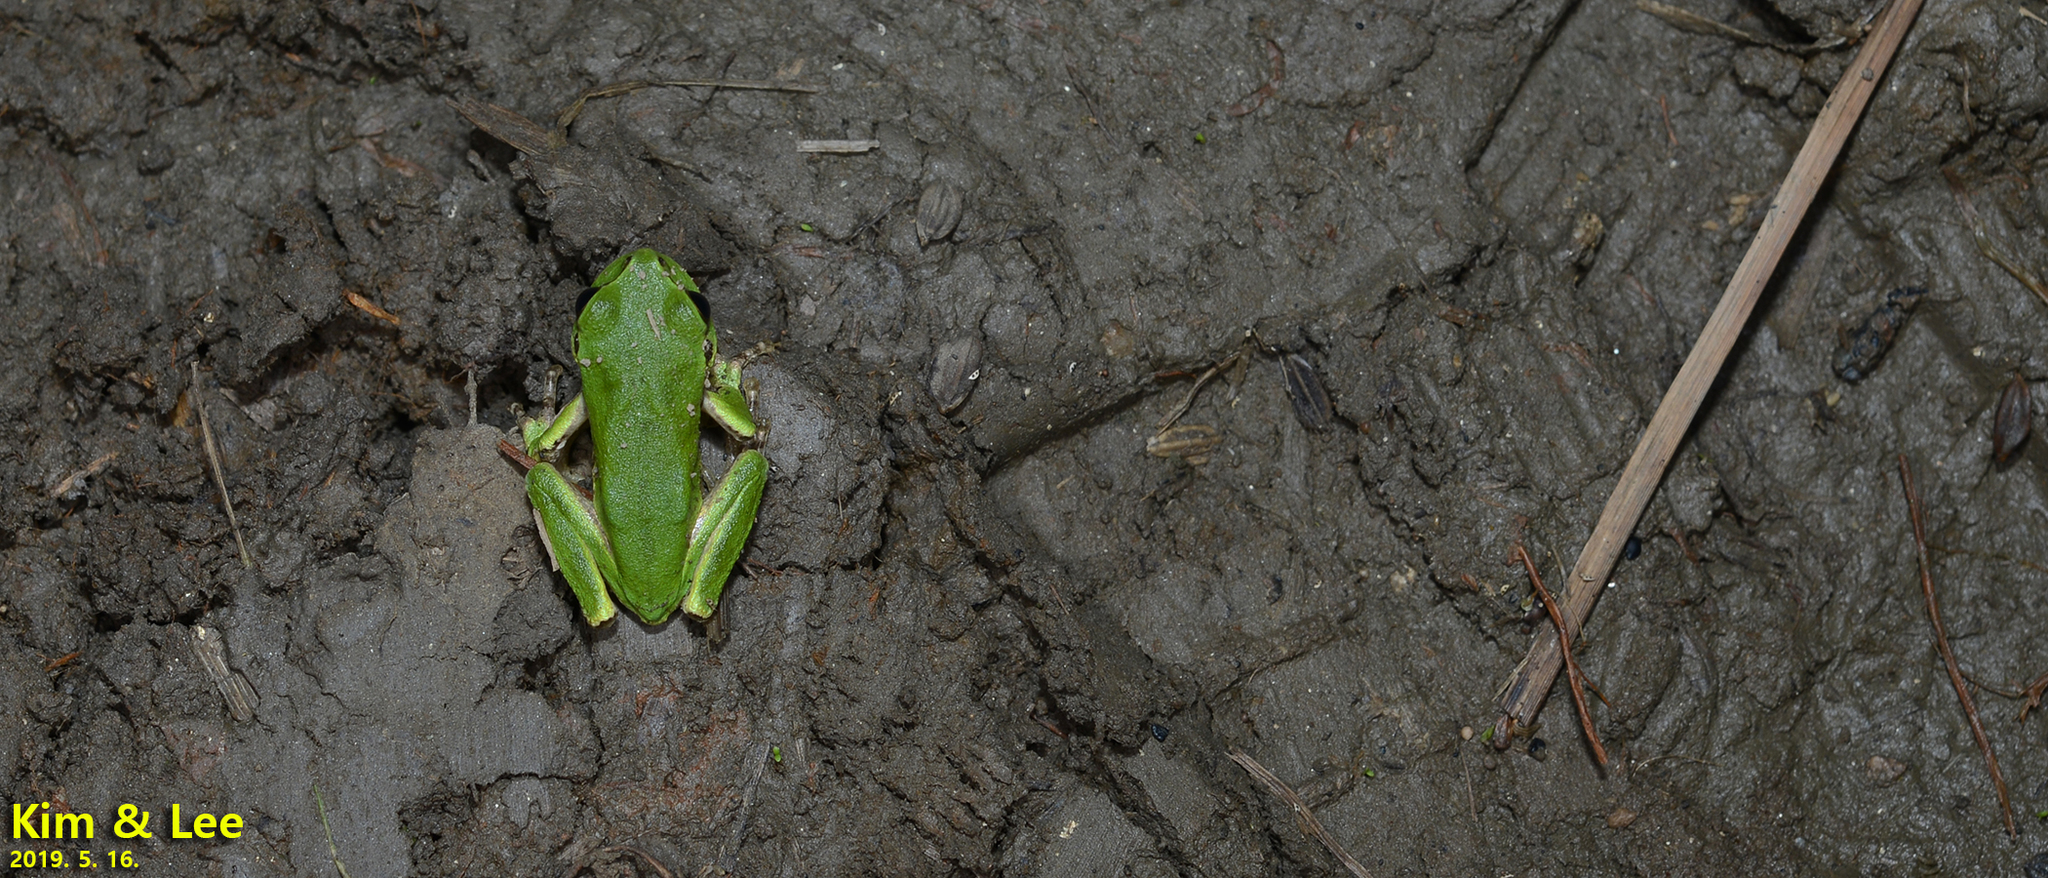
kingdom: Animalia
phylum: Chordata
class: Amphibia
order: Anura
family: Hylidae
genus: Dryophytes
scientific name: Dryophytes japonicus
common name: Japanese treefrog
